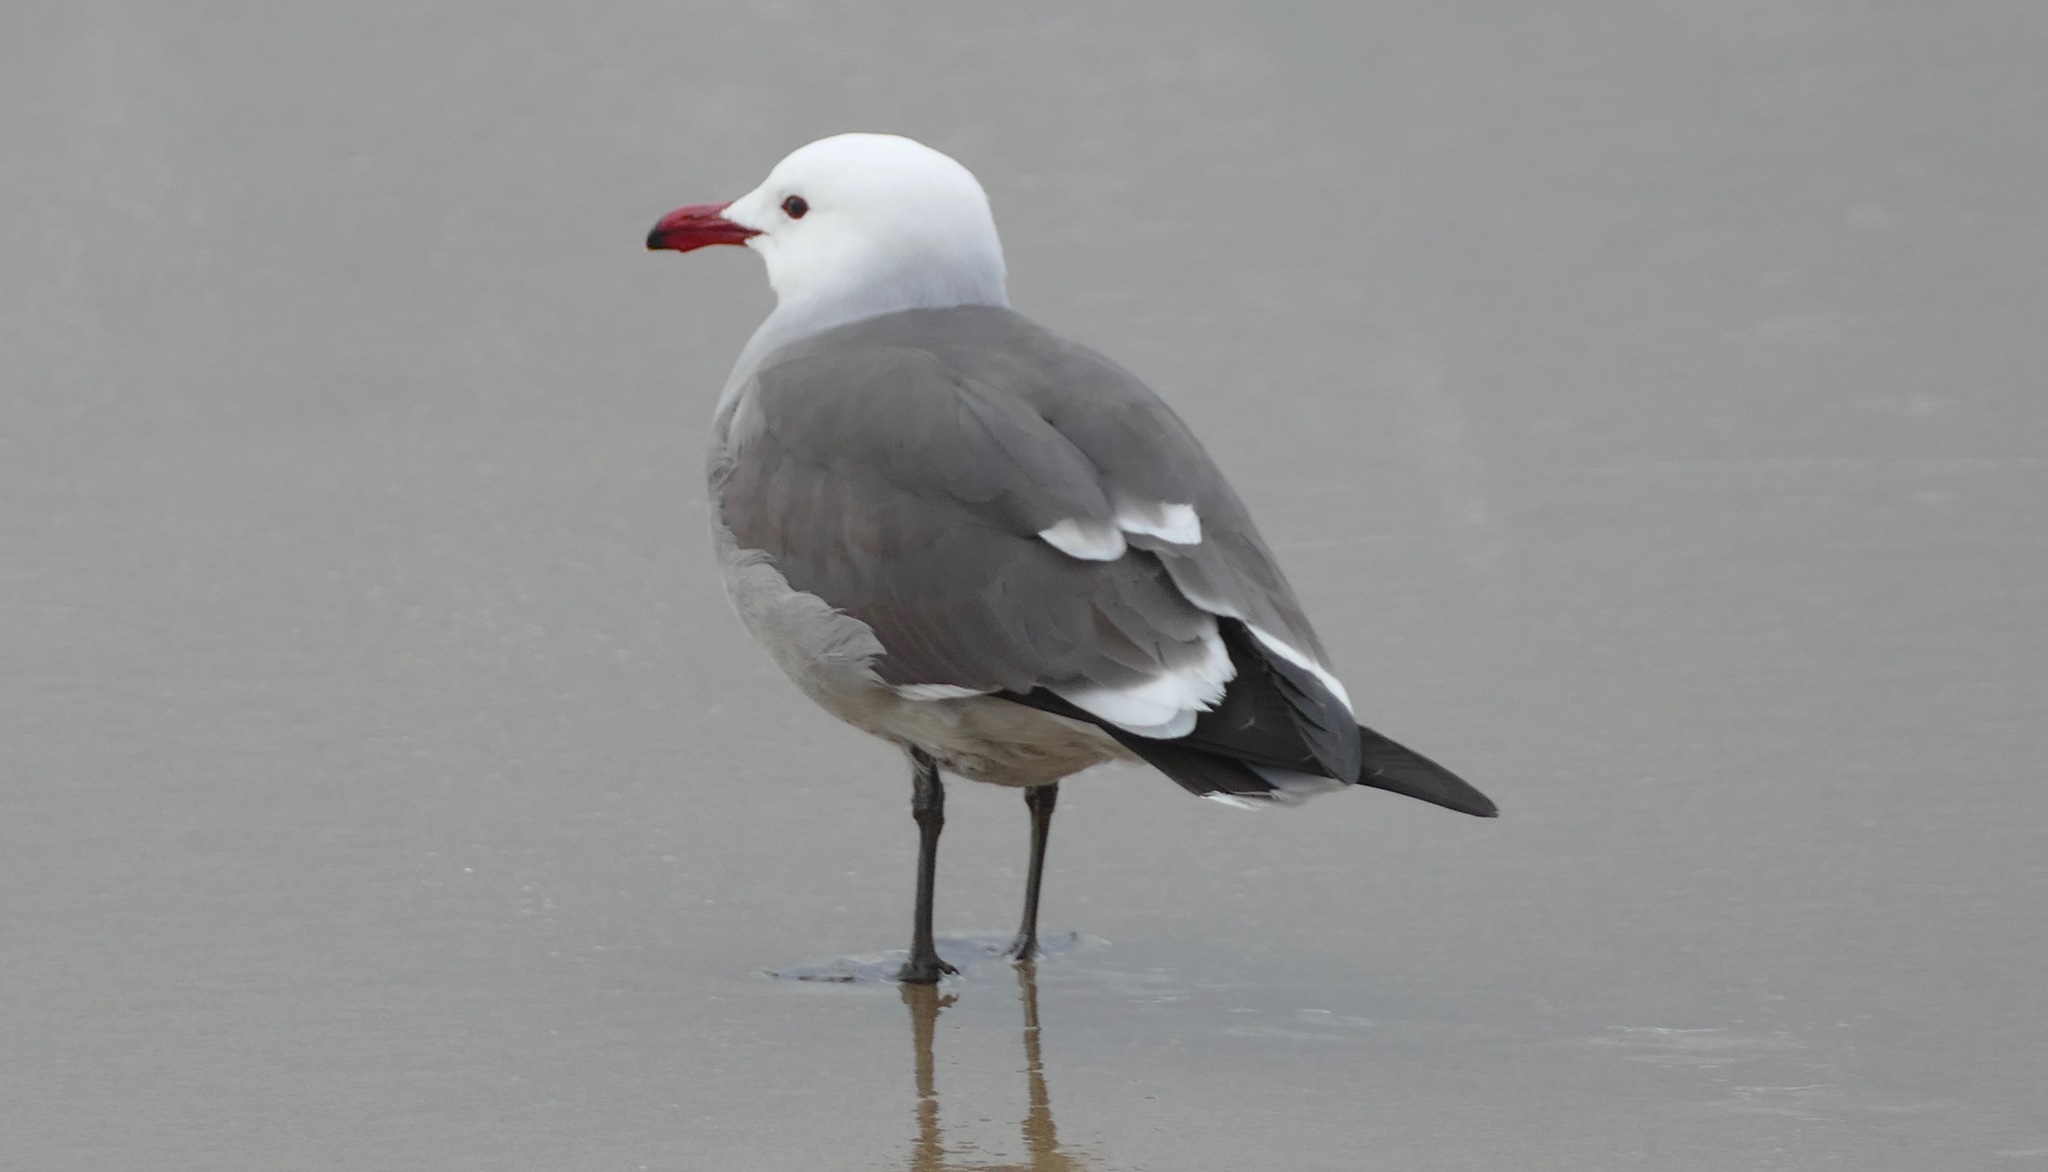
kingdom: Animalia
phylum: Chordata
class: Aves
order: Charadriiformes
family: Laridae
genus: Larus
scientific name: Larus heermanni
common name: Heermann's gull
